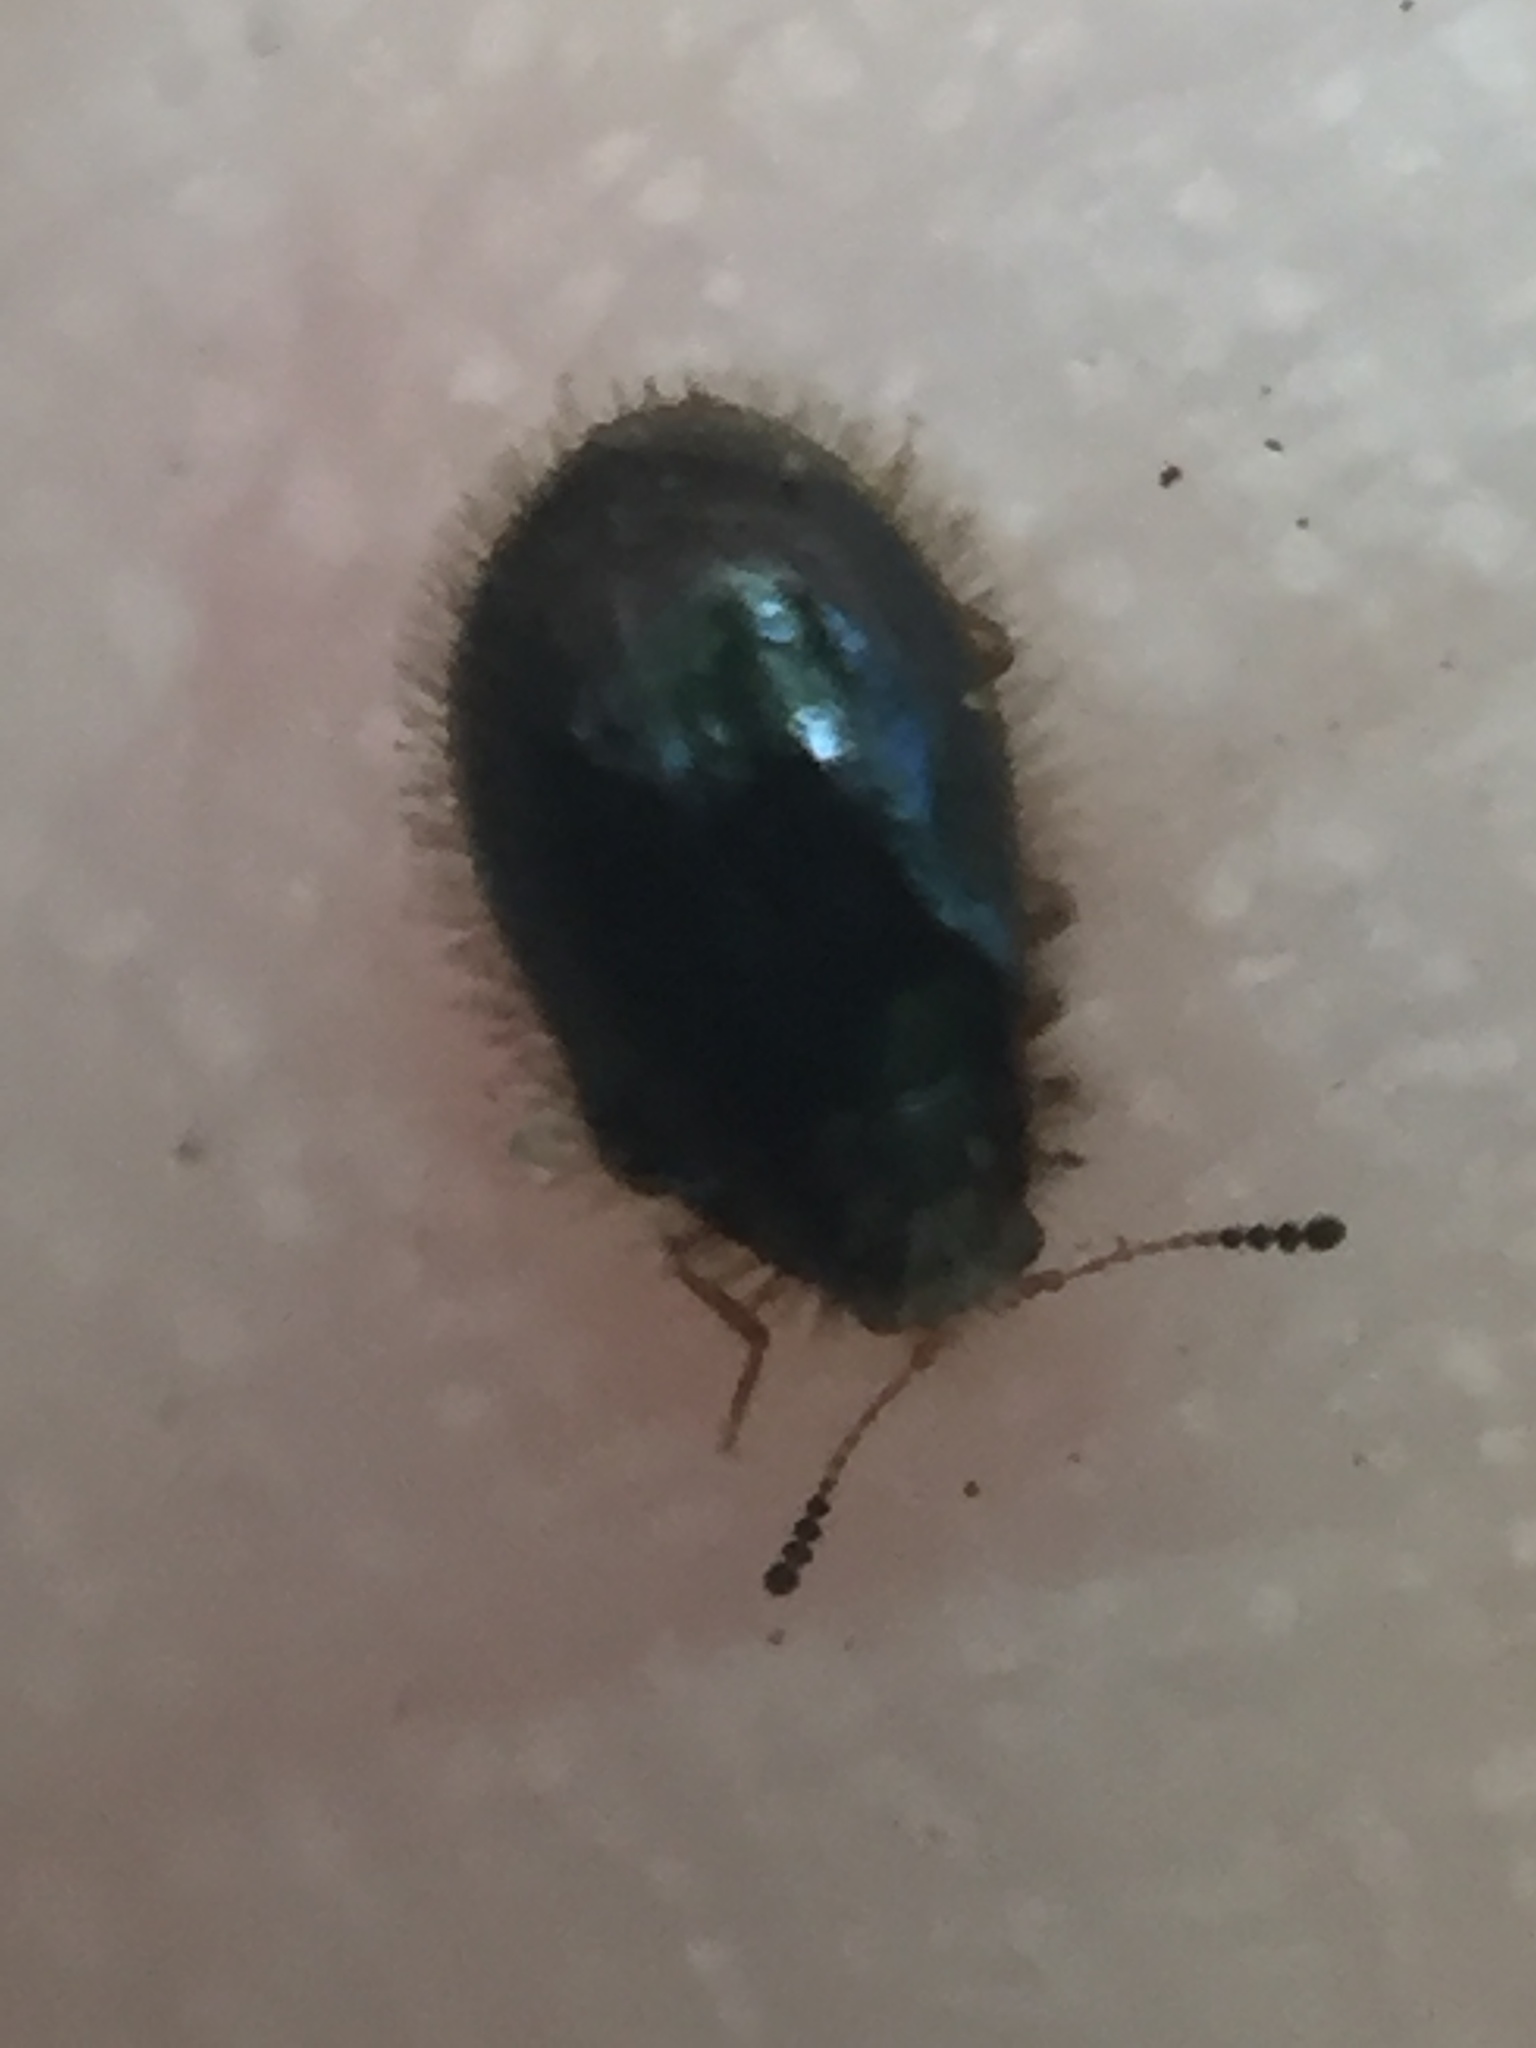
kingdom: Animalia
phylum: Arthropoda
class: Insecta
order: Coleoptera
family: Dermestidae
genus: Hexanodes
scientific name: Hexanodes
